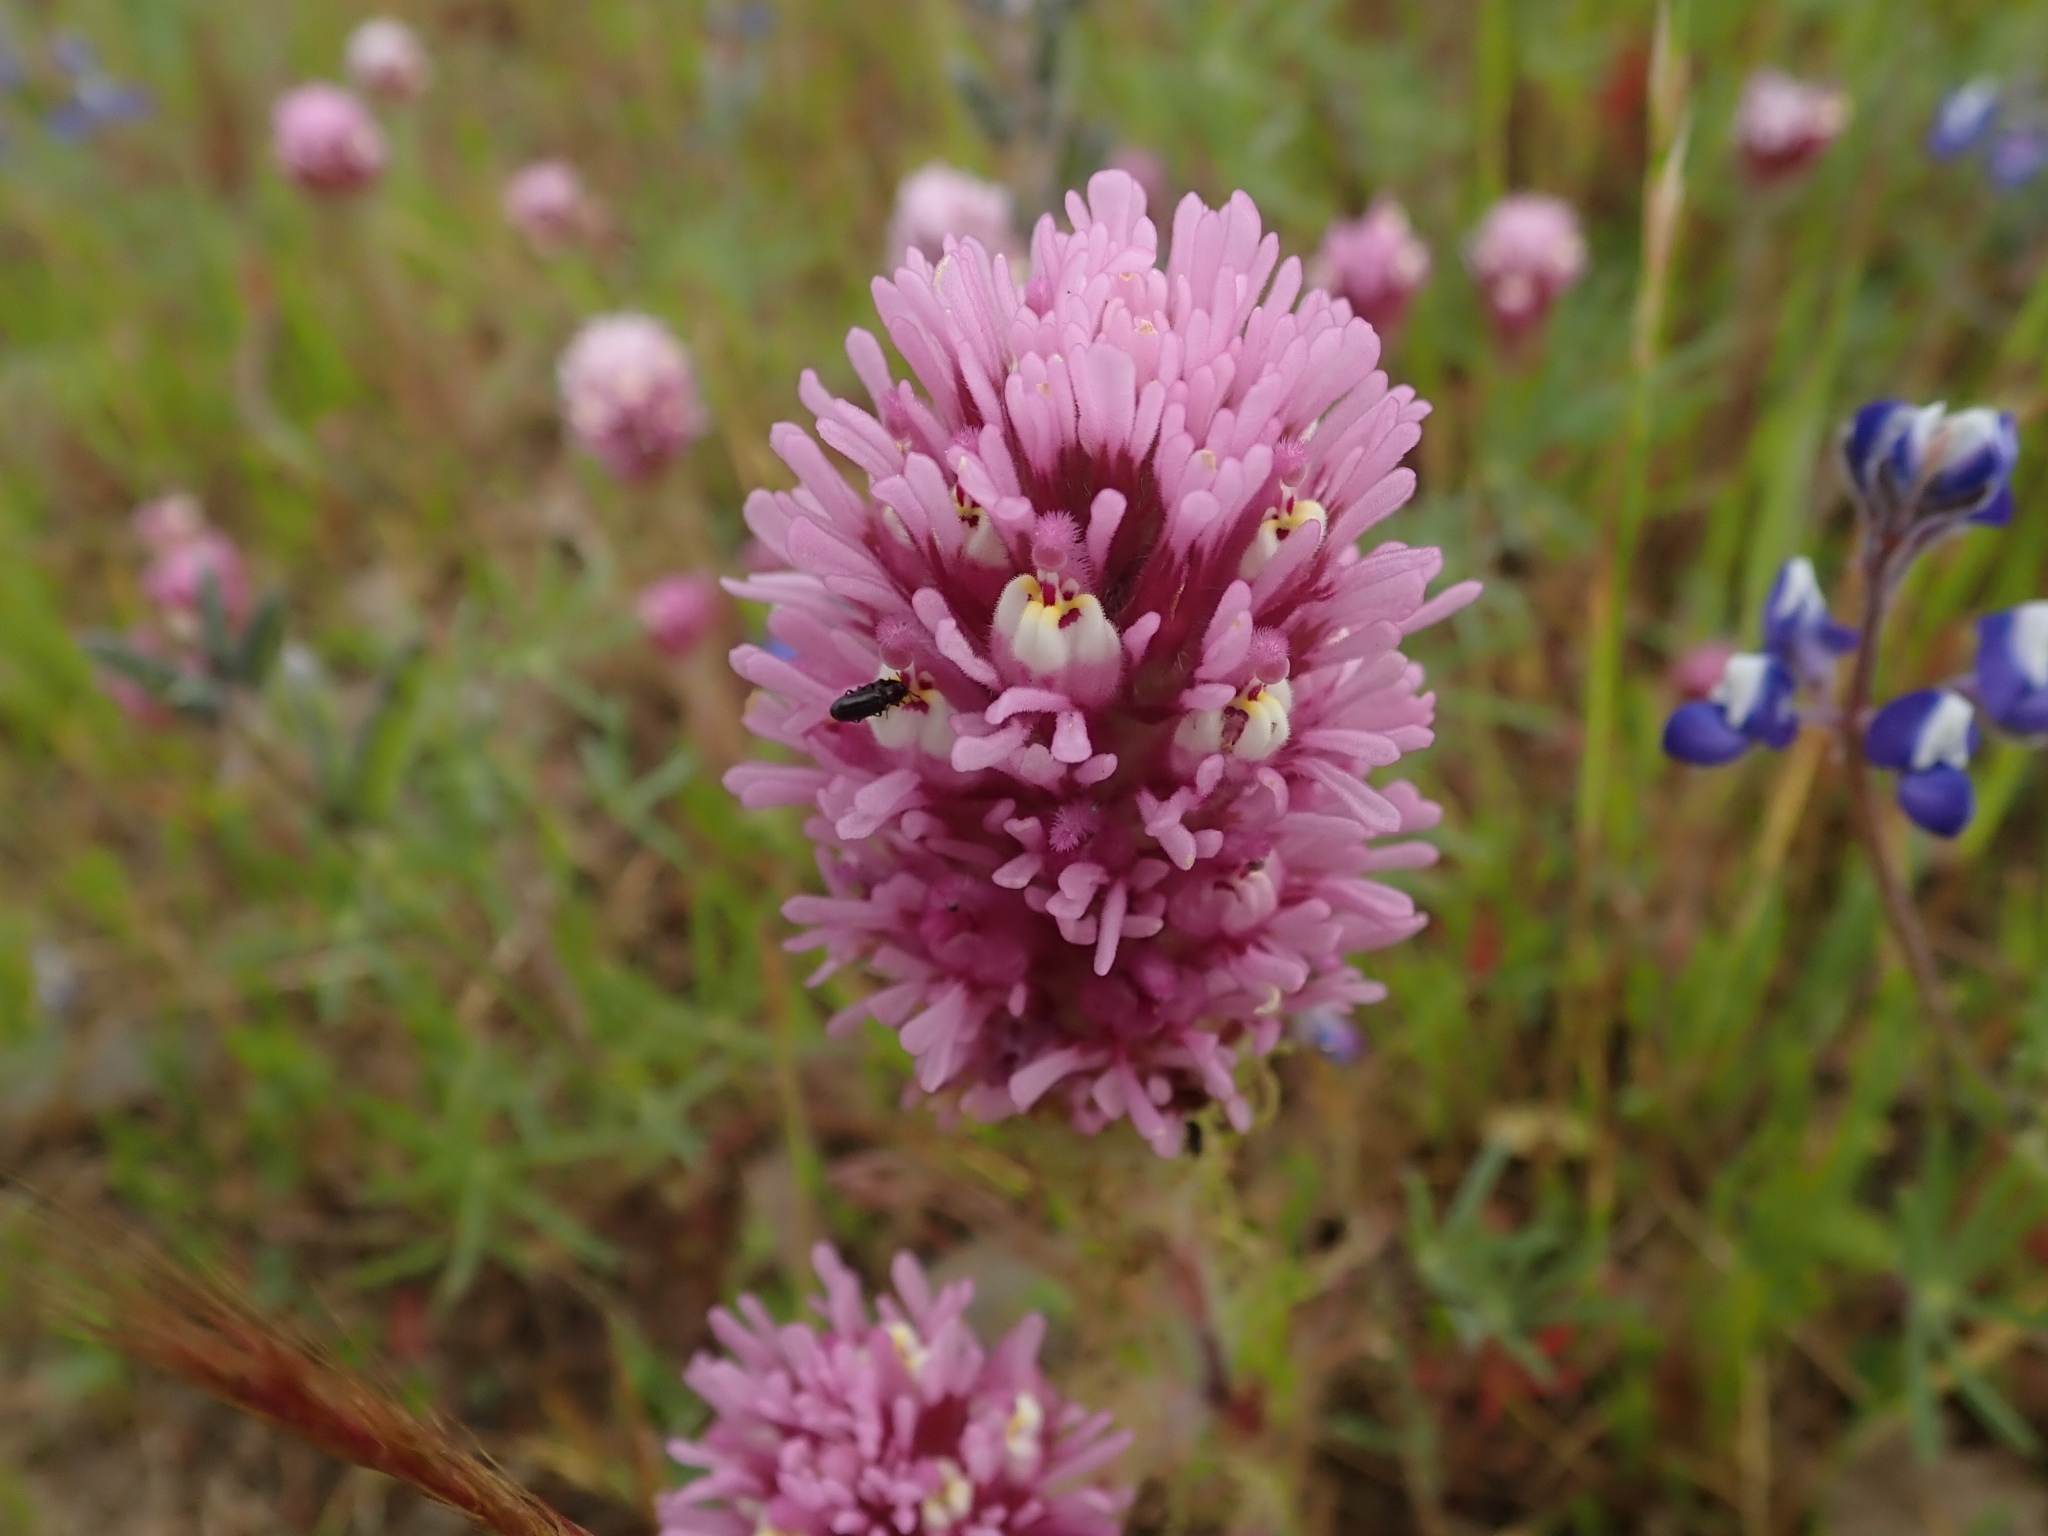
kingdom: Plantae
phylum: Tracheophyta
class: Magnoliopsida
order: Lamiales
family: Orobanchaceae
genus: Castilleja
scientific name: Castilleja exserta
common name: Purple owl-clover
